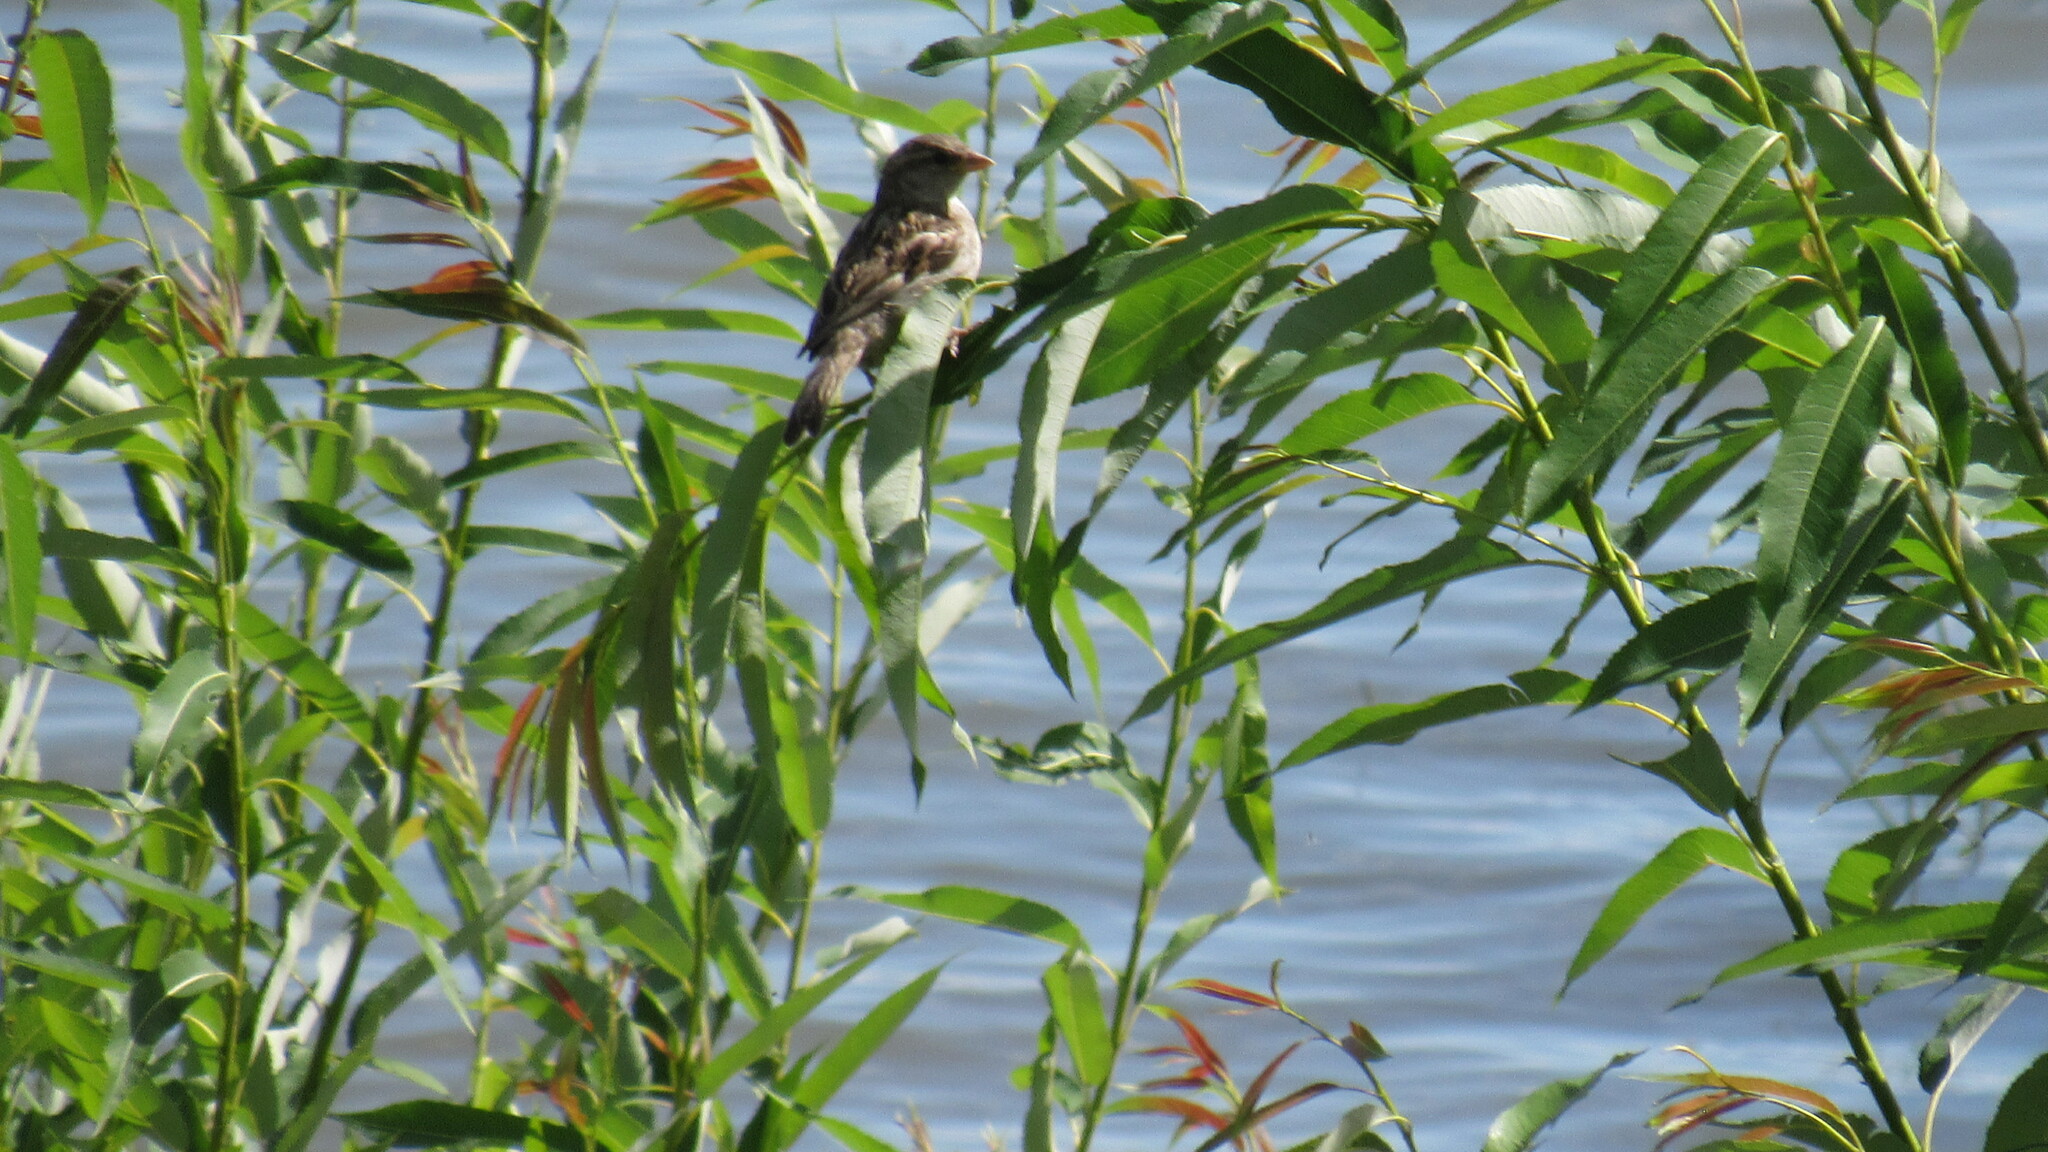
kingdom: Animalia
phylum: Chordata
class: Aves
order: Passeriformes
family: Passeridae
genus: Passer
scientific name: Passer domesticus
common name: House sparrow
